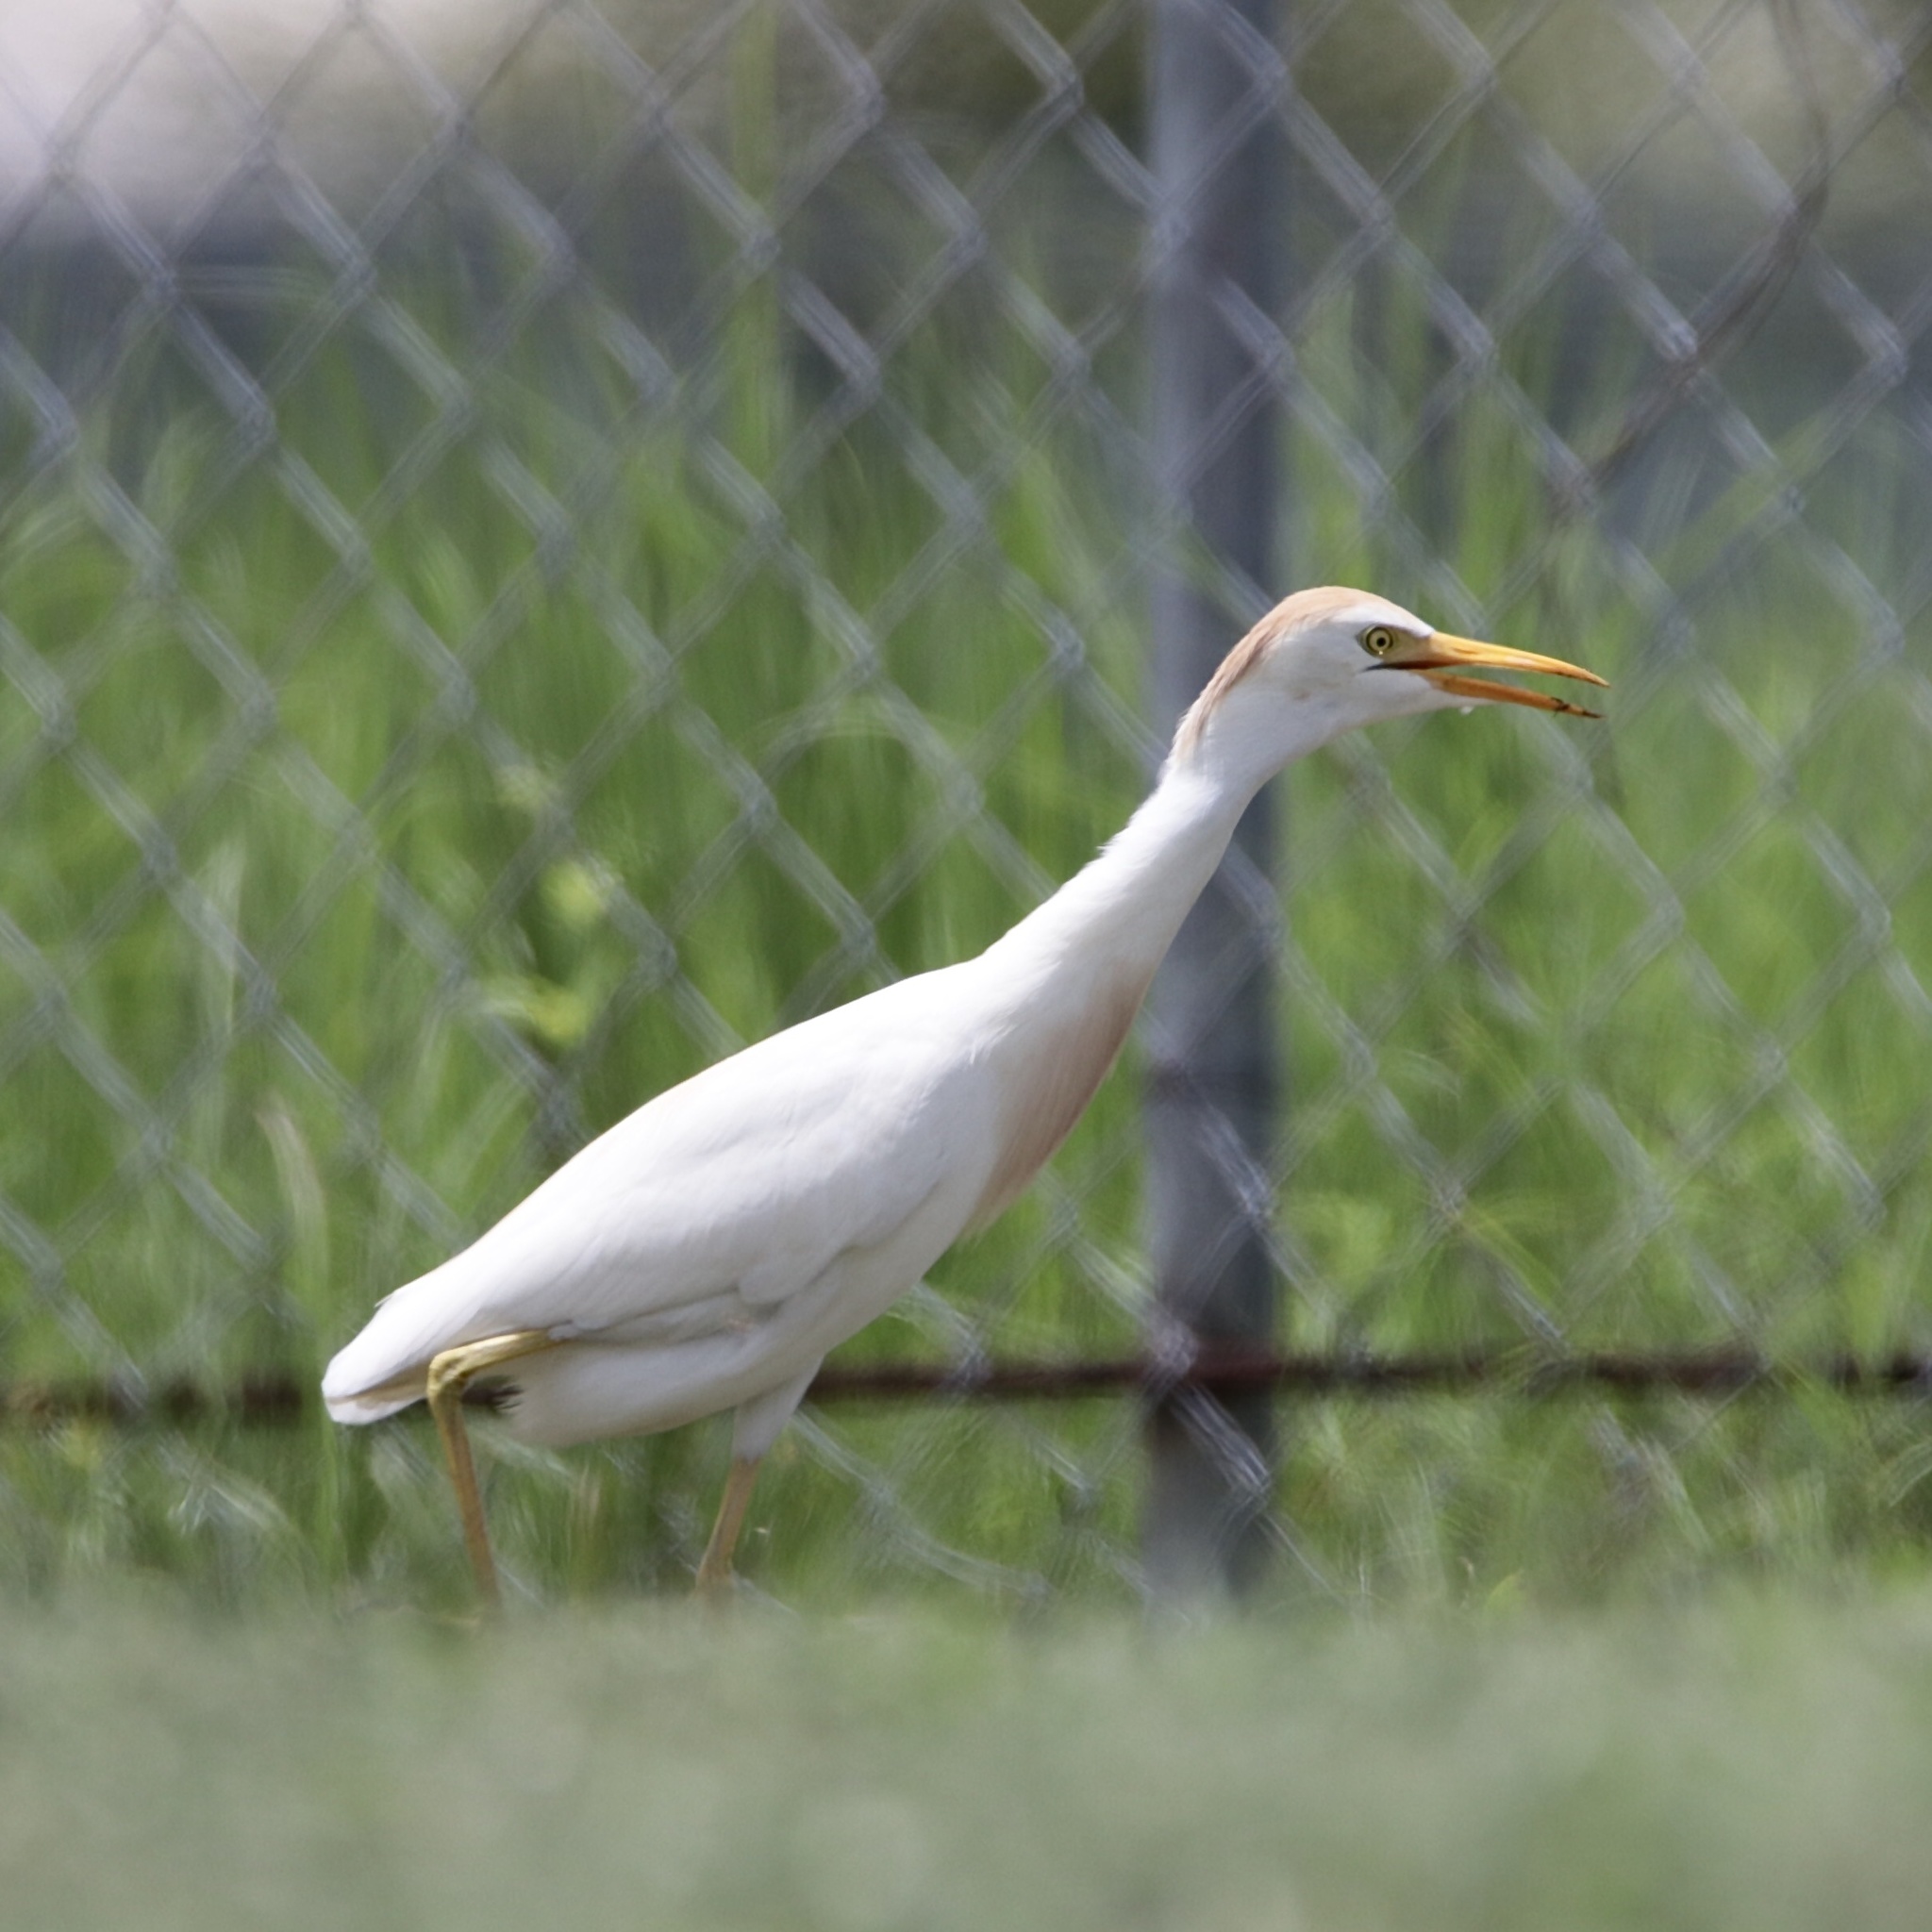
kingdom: Animalia
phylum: Chordata
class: Aves
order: Pelecaniformes
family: Ardeidae
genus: Bubulcus
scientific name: Bubulcus ibis
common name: Cattle egret
